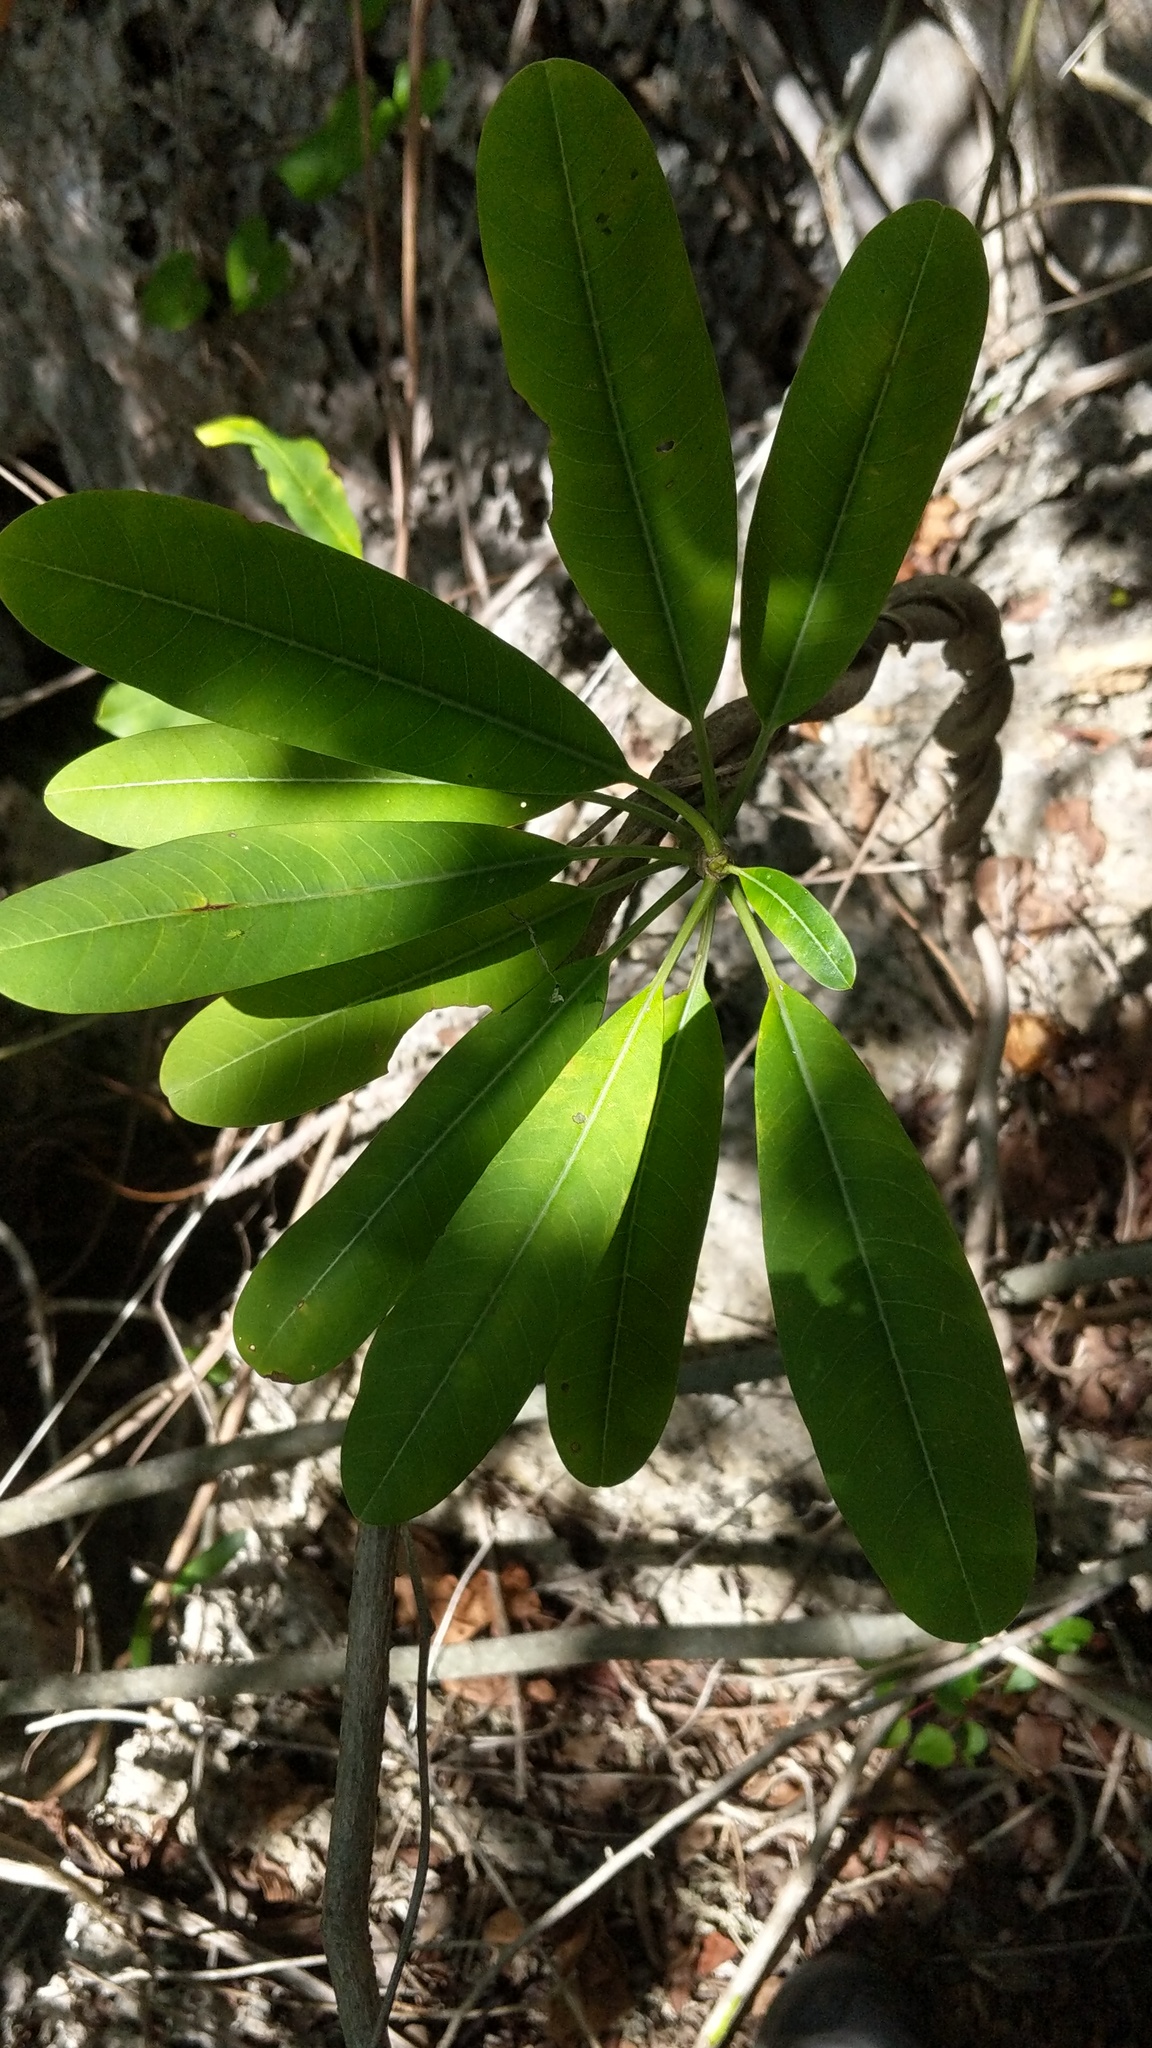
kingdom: Plantae
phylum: Tracheophyta
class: Magnoliopsida
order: Gentianales
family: Apocynaceae
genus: Plumeria
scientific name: Plumeria obtusa
